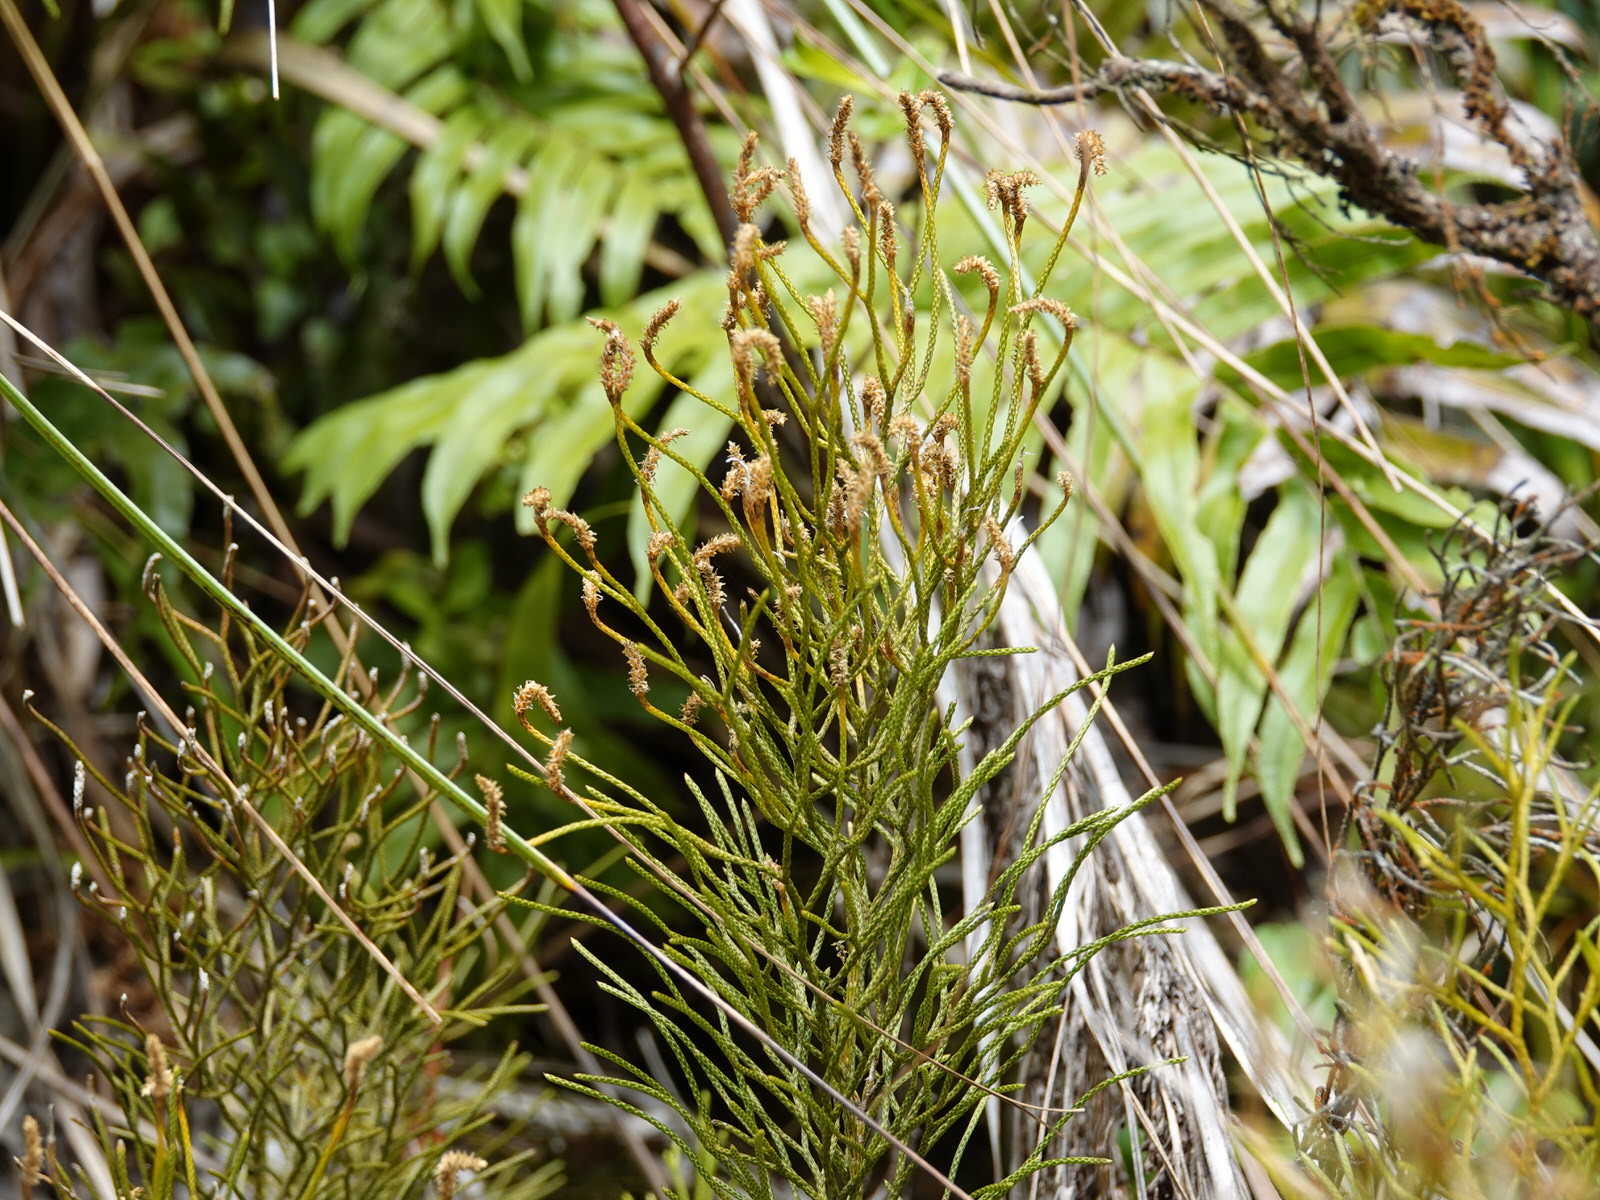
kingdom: Plantae
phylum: Tracheophyta
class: Lycopodiopsida
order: Lycopodiales
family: Lycopodiaceae
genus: Pseudolycopodium
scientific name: Pseudolycopodium densum
